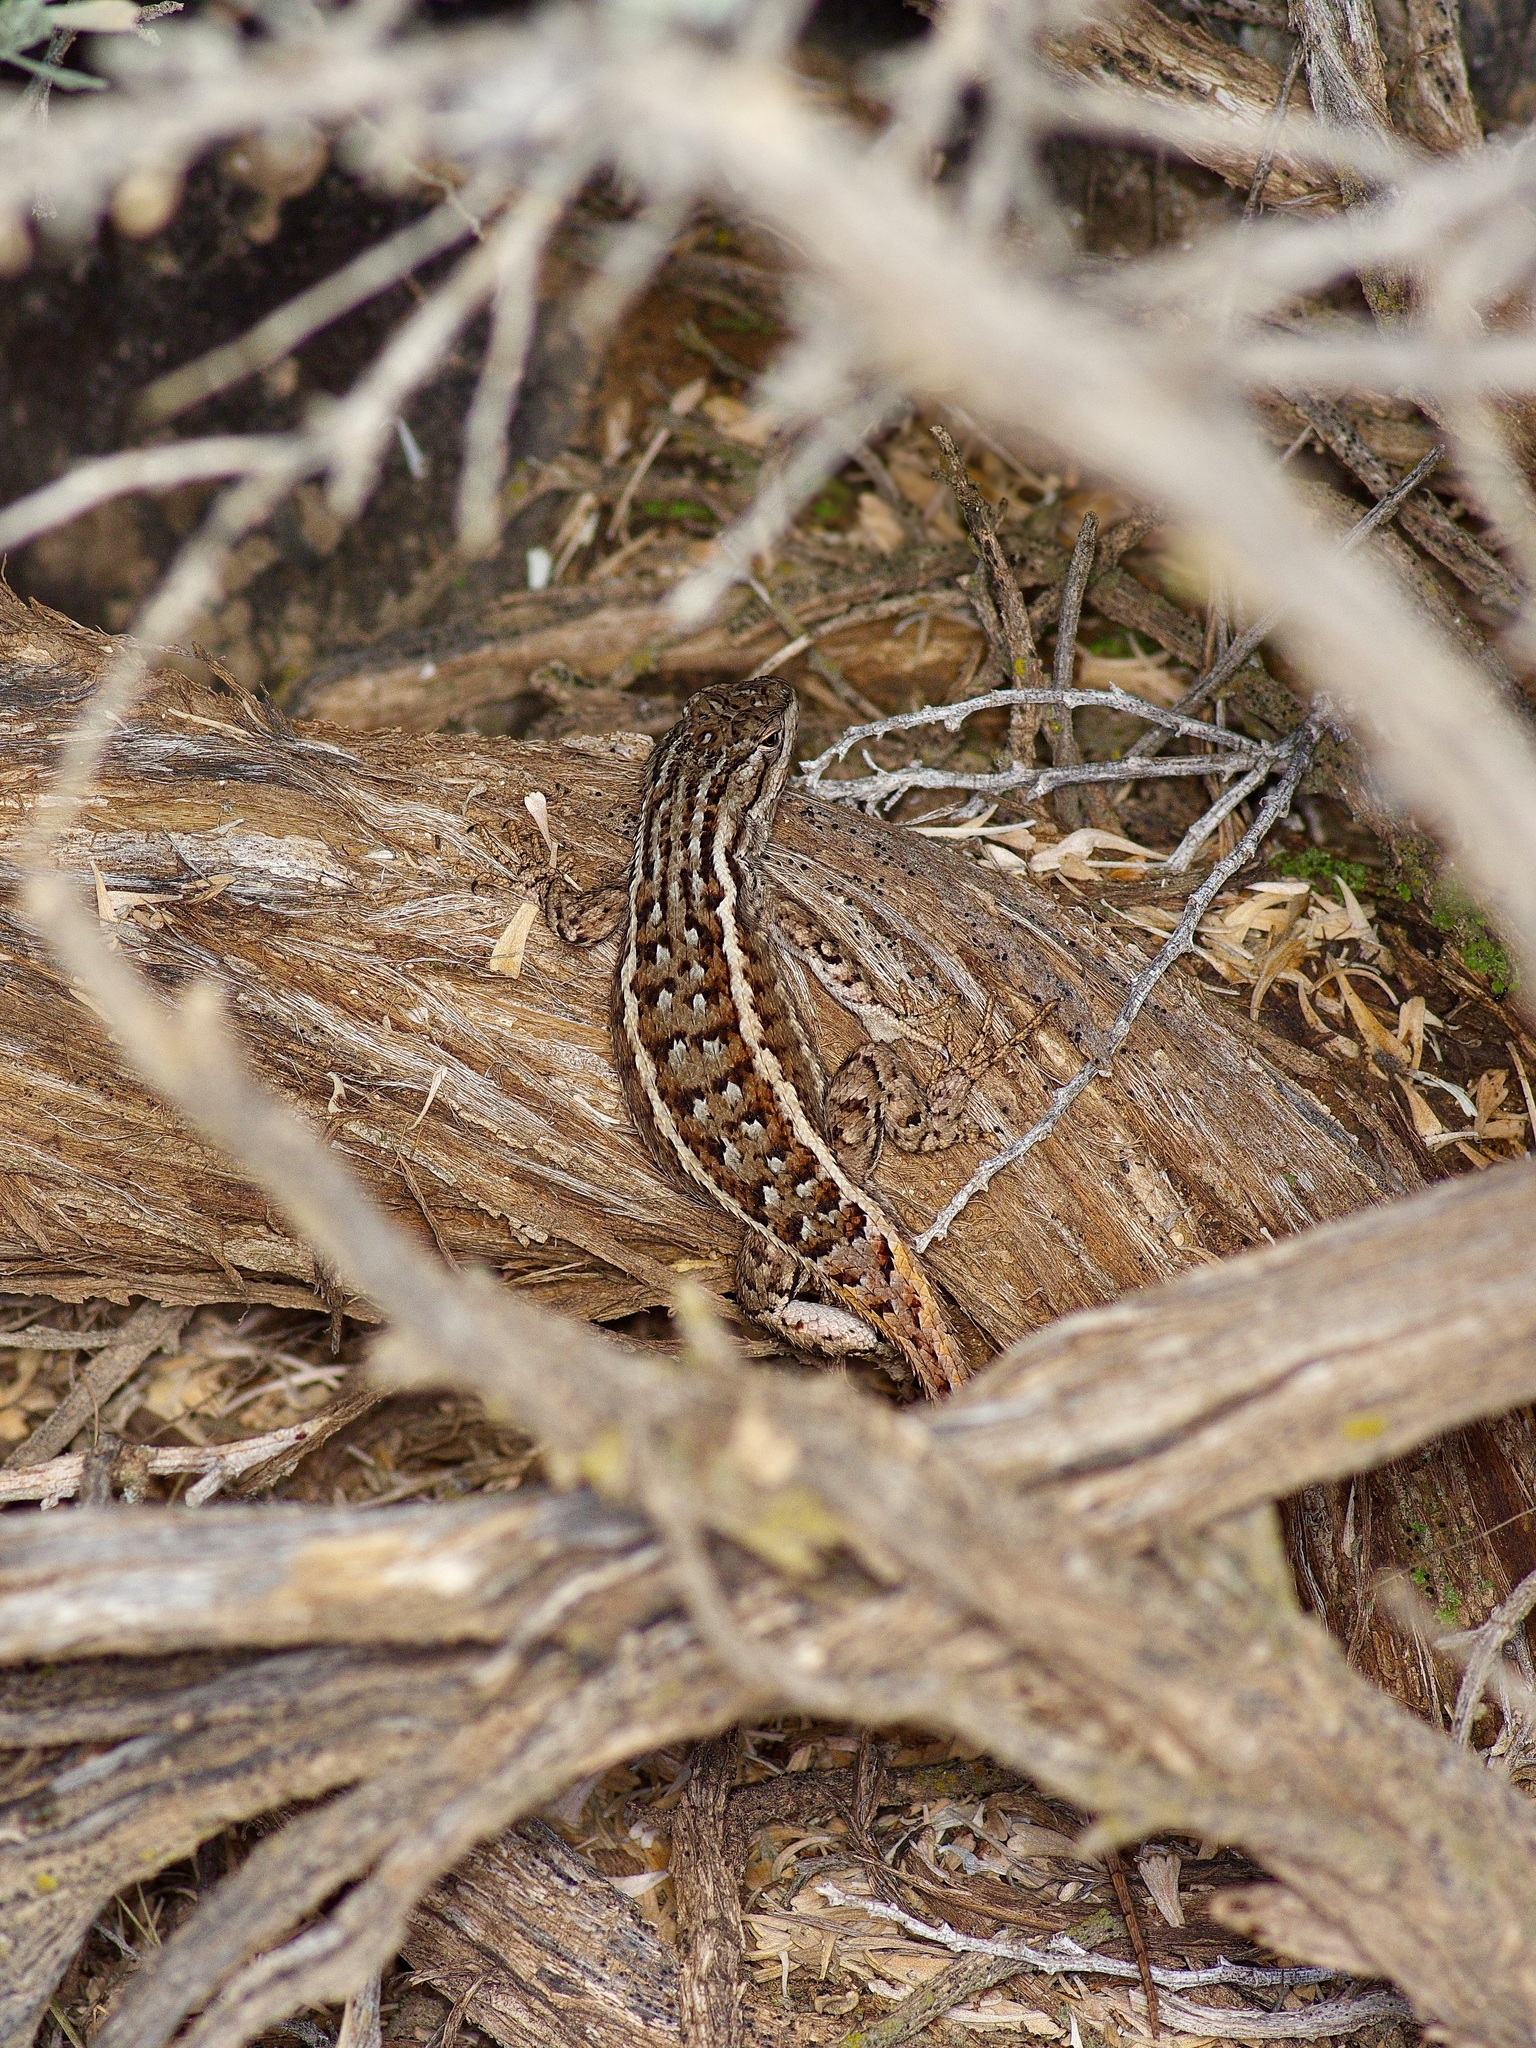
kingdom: Animalia
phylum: Chordata
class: Squamata
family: Phrynosomatidae
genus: Sceloporus
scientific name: Sceloporus
